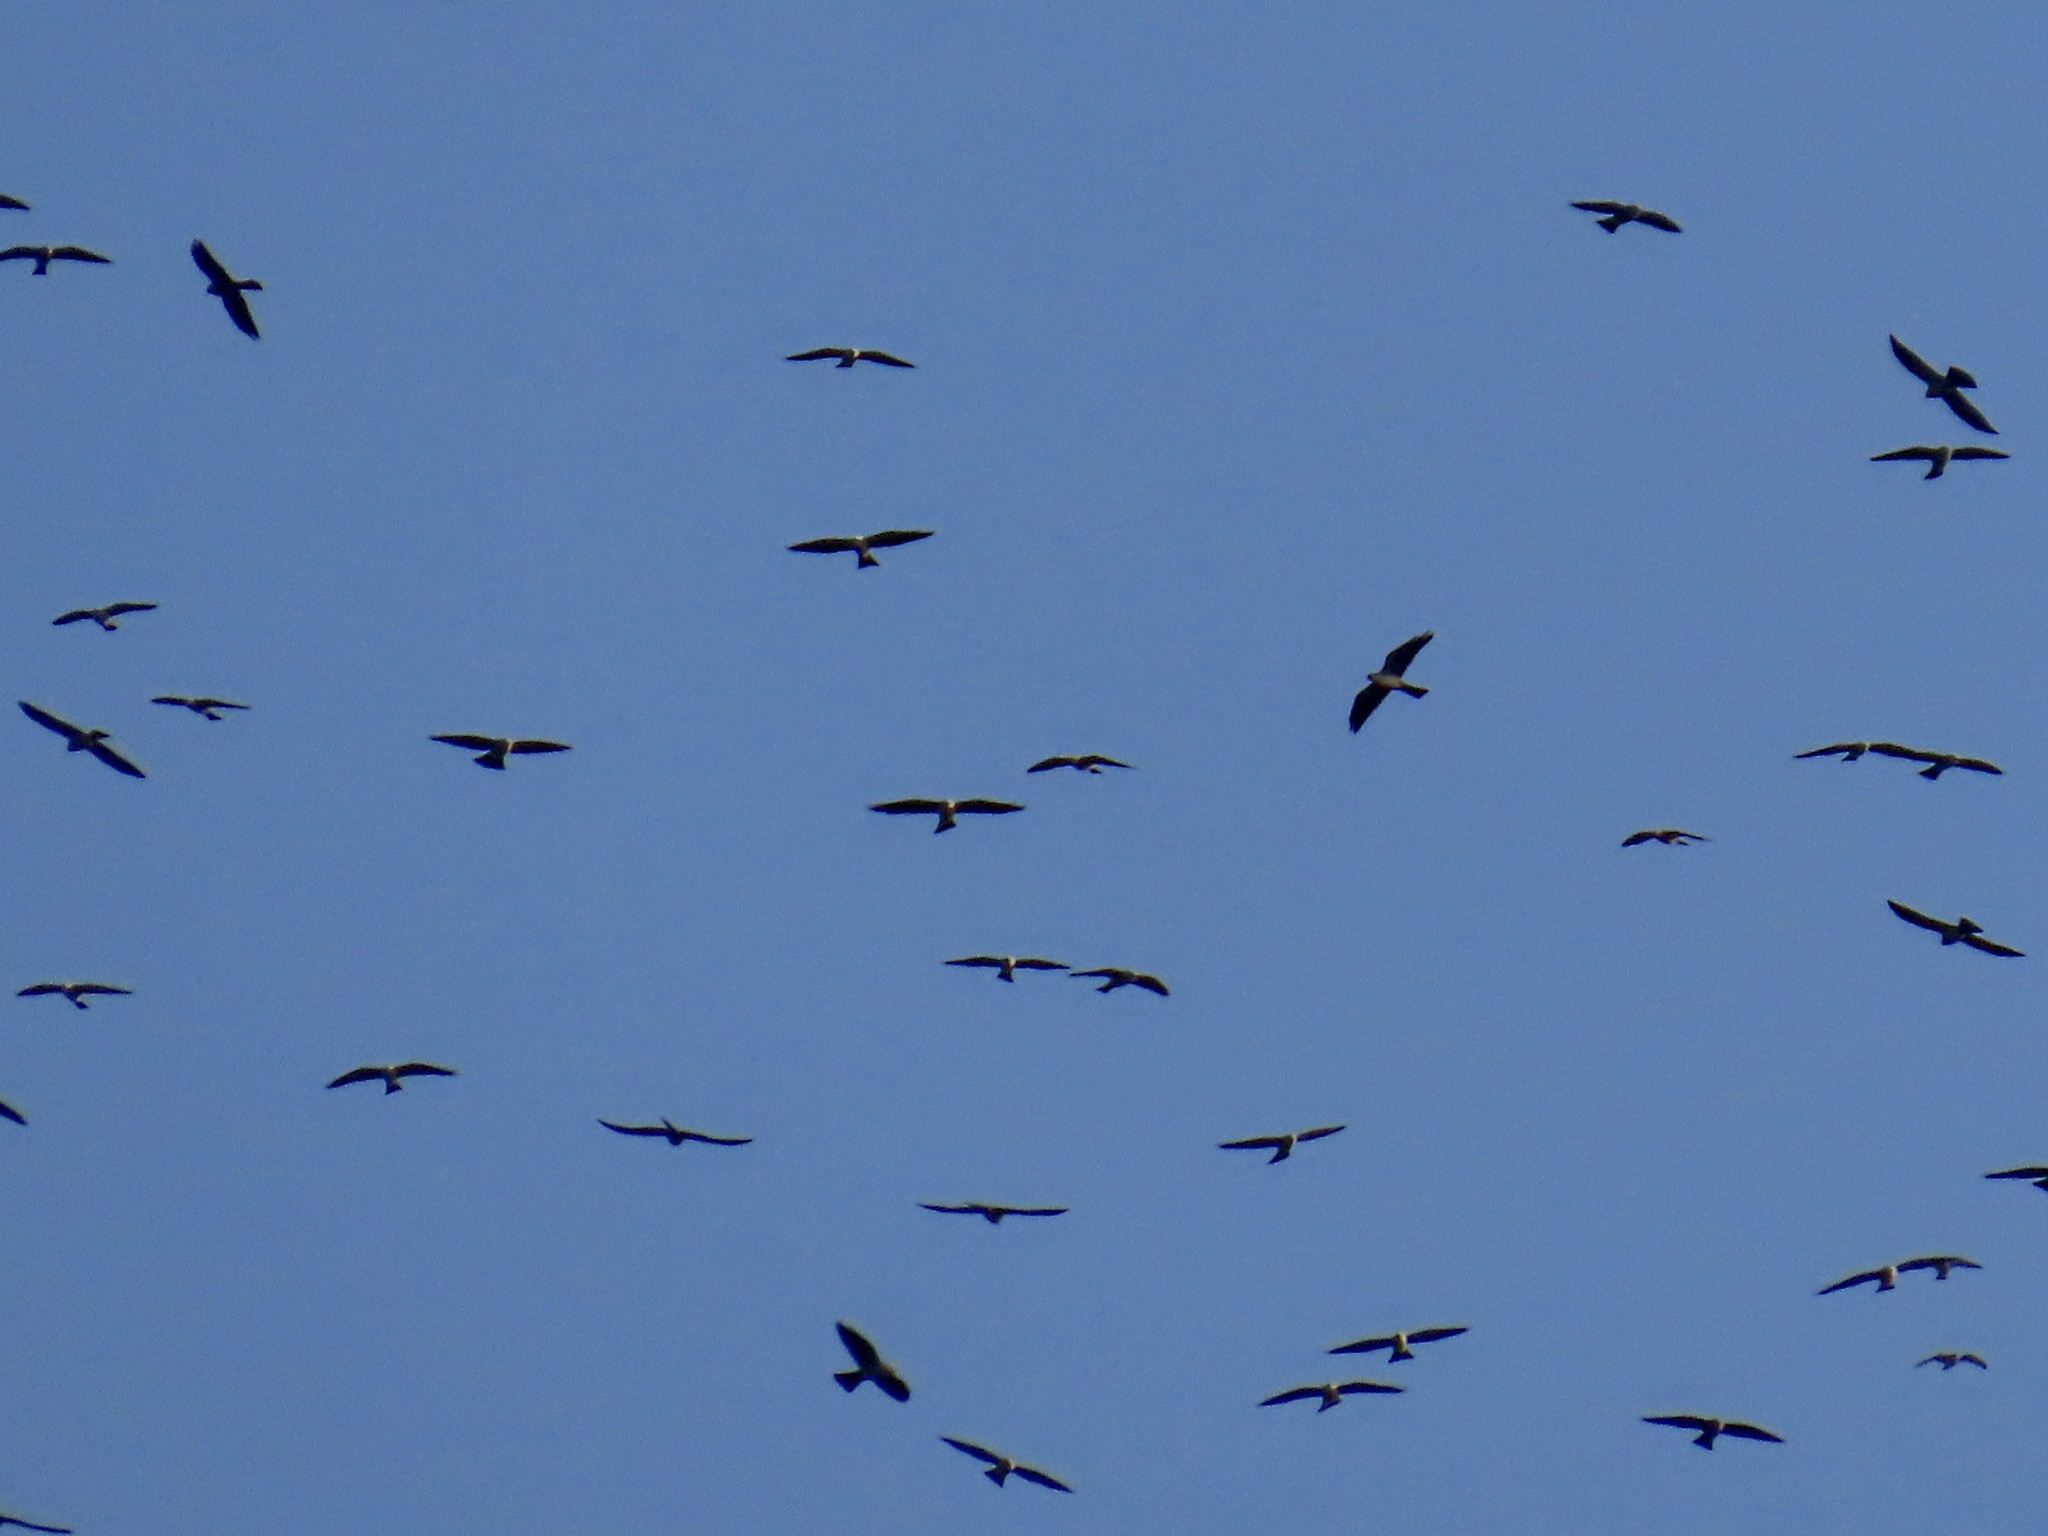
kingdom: Animalia
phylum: Chordata
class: Aves
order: Accipitriformes
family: Accipitridae
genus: Ictinia
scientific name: Ictinia mississippiensis
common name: Mississippi kite
